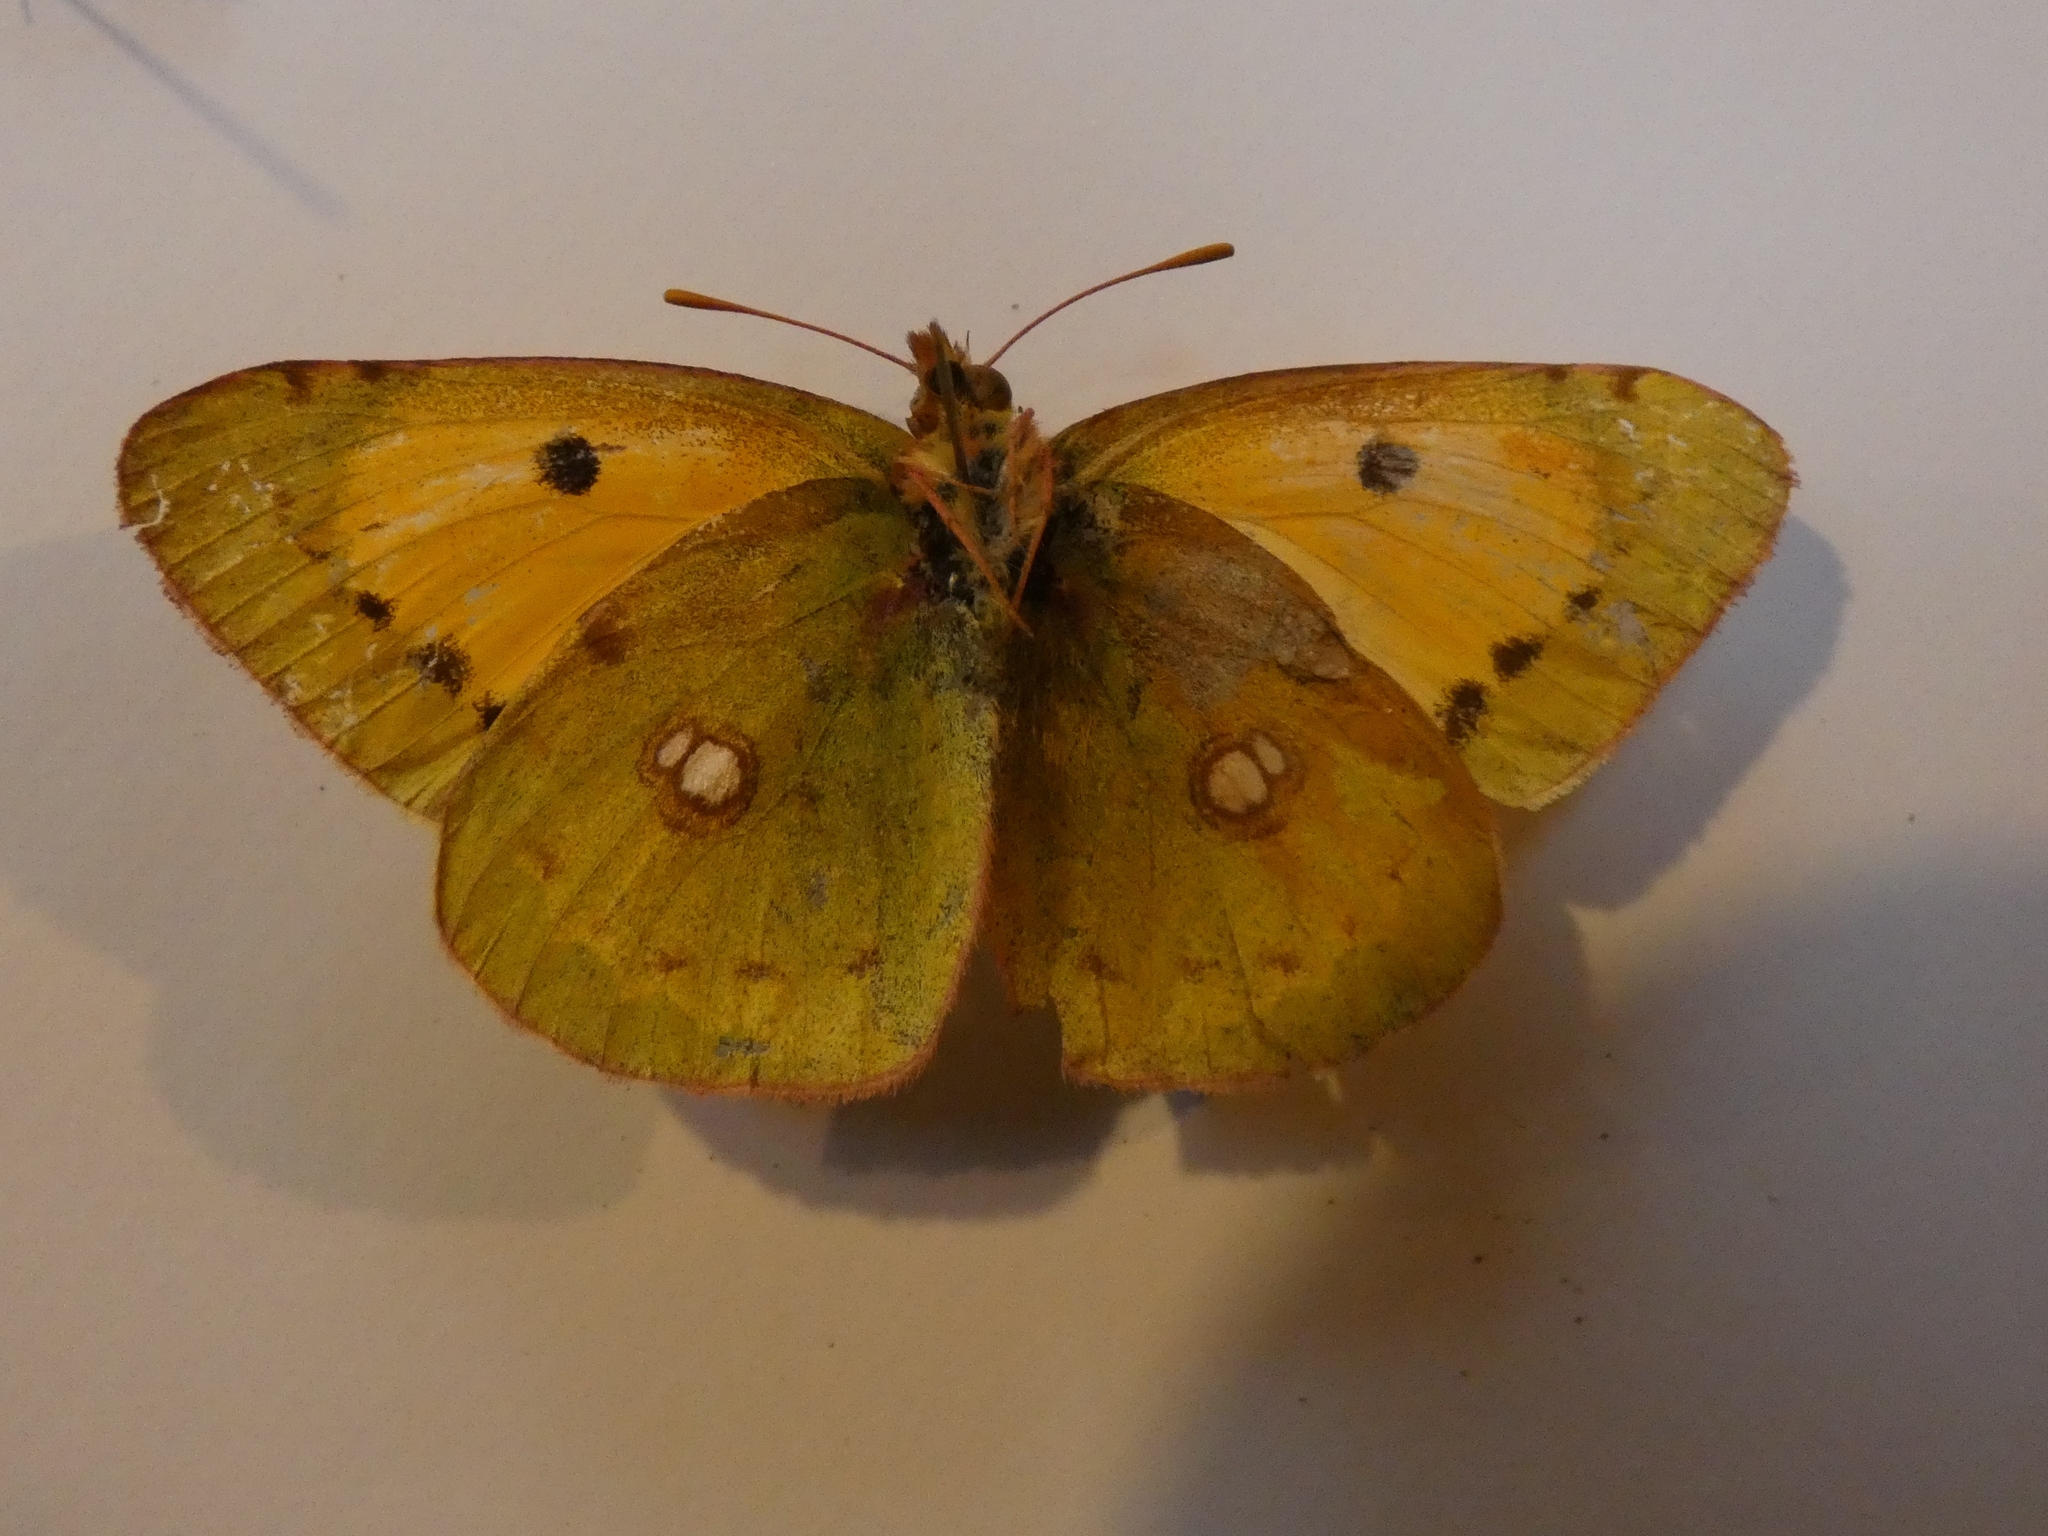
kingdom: Animalia
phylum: Arthropoda
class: Insecta
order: Lepidoptera
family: Pieridae
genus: Colias
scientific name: Colias croceus
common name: Clouded yellow
